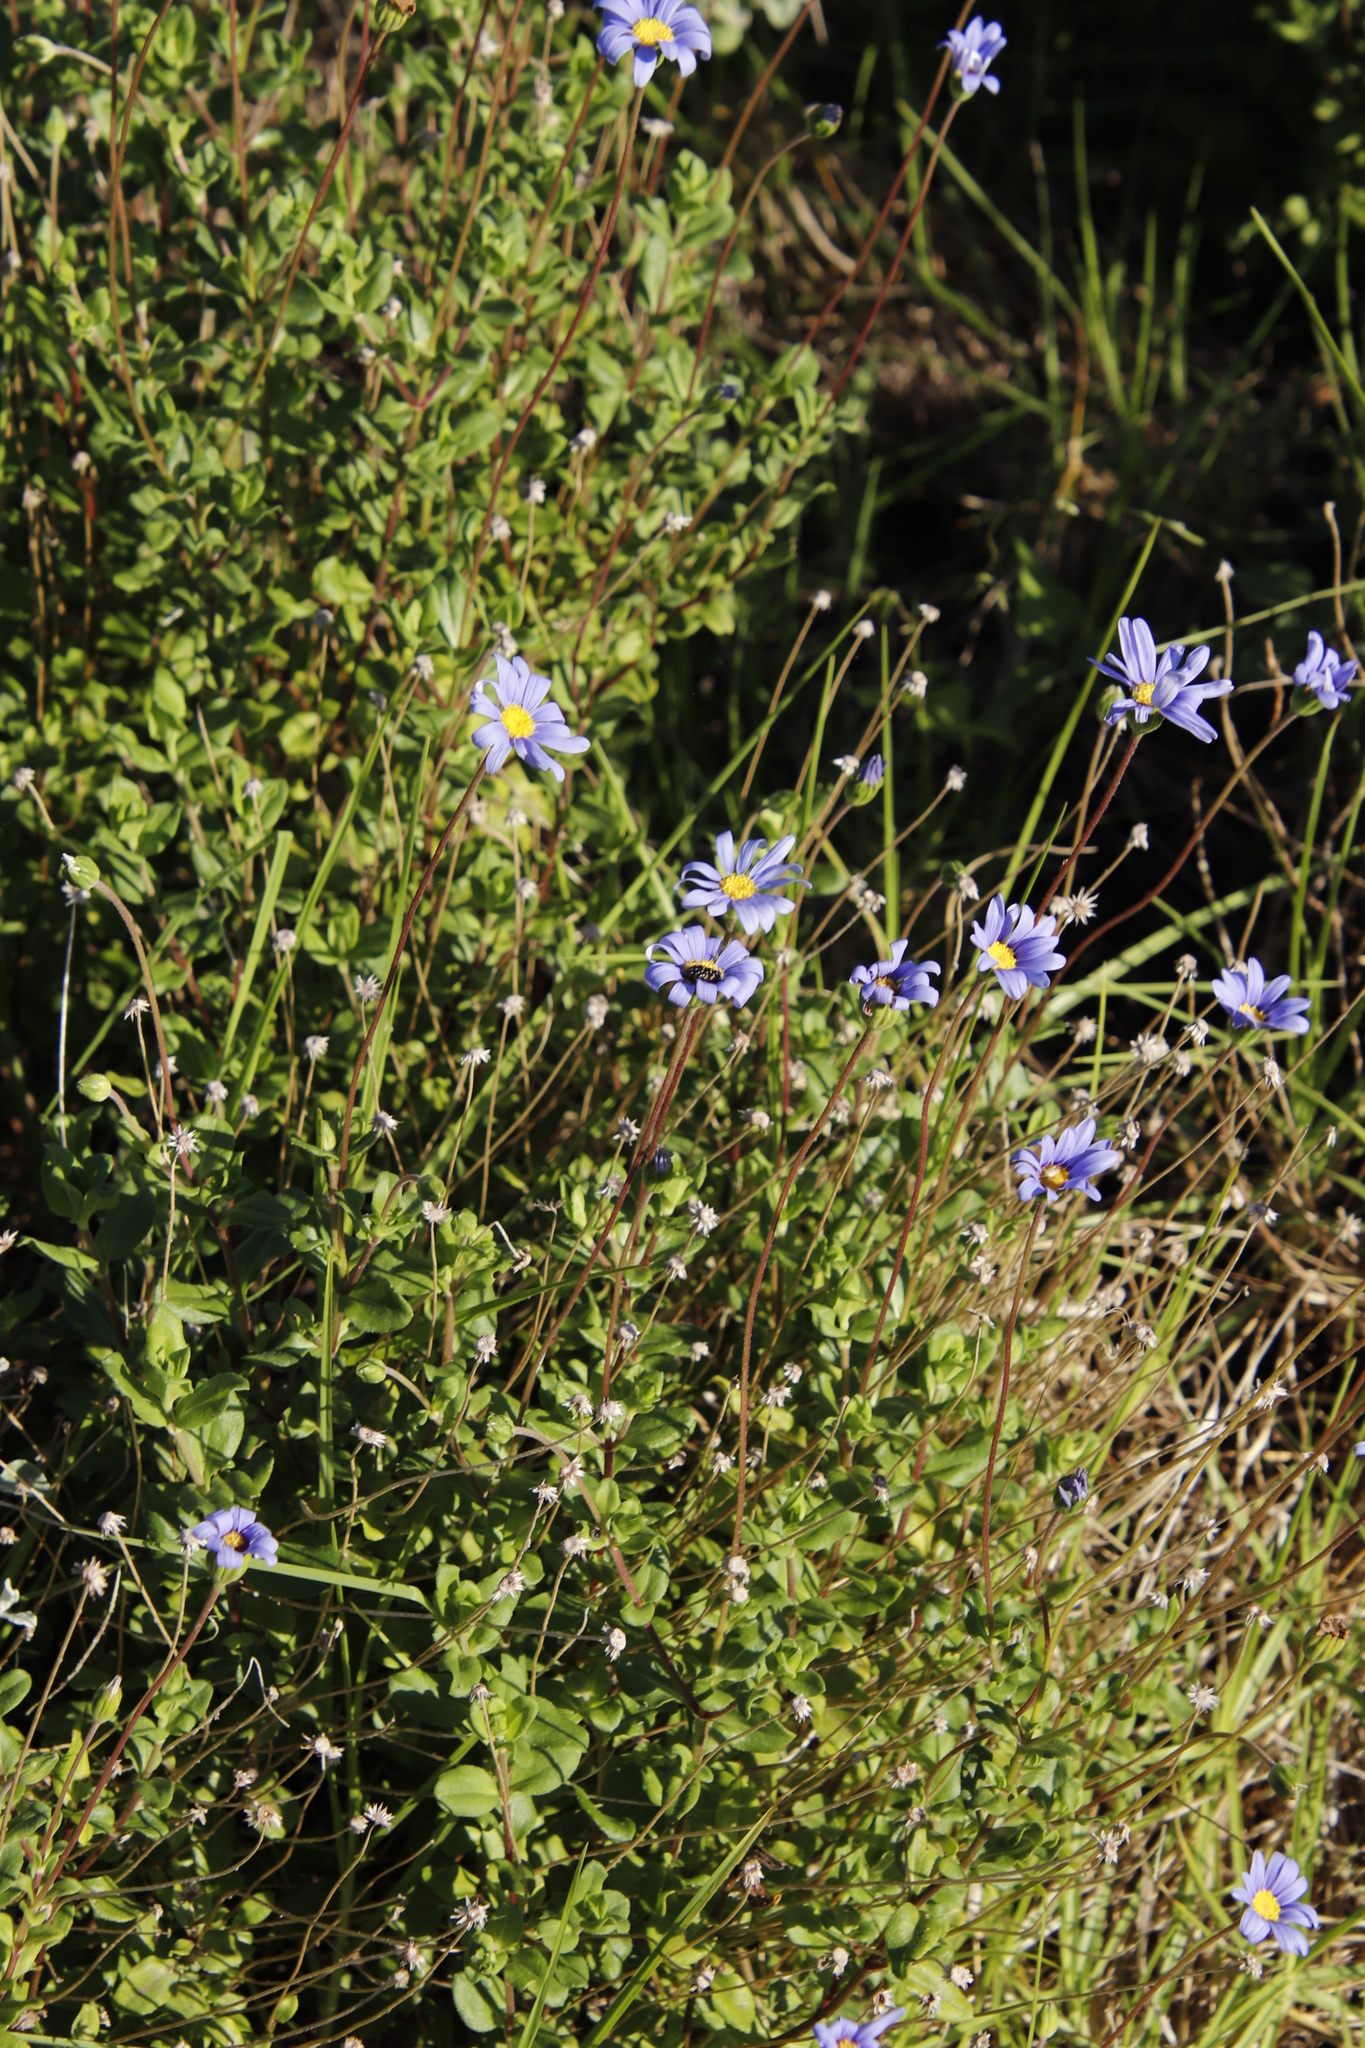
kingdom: Animalia
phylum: Arthropoda
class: Insecta
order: Coleoptera
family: Scarabaeidae
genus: Oxythyrea
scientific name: Oxythyrea
